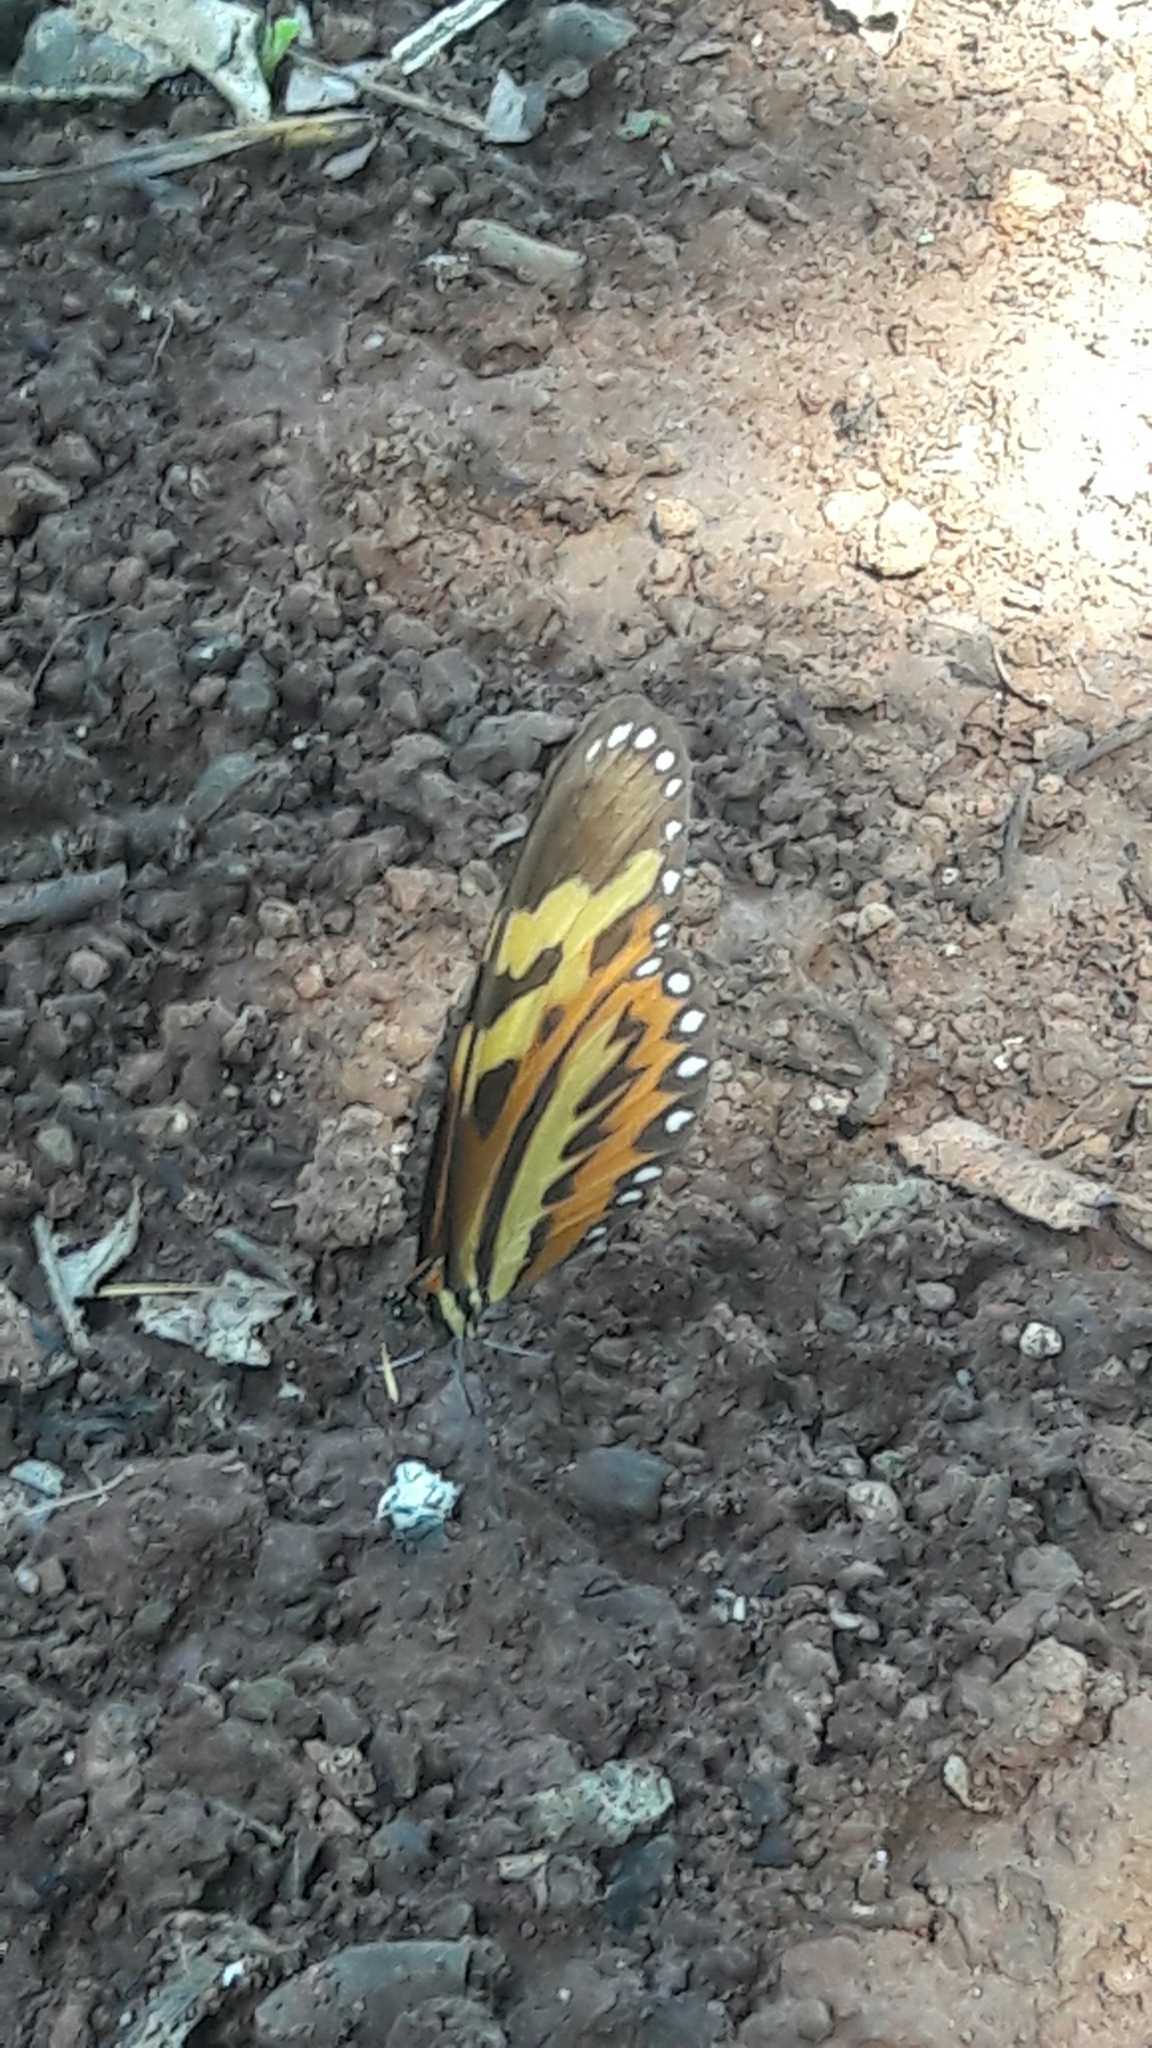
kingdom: Animalia
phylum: Arthropoda
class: Insecta
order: Lepidoptera
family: Nymphalidae
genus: Mechanitis
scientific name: Mechanitis polymnia
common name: Disturbed tigerwing
